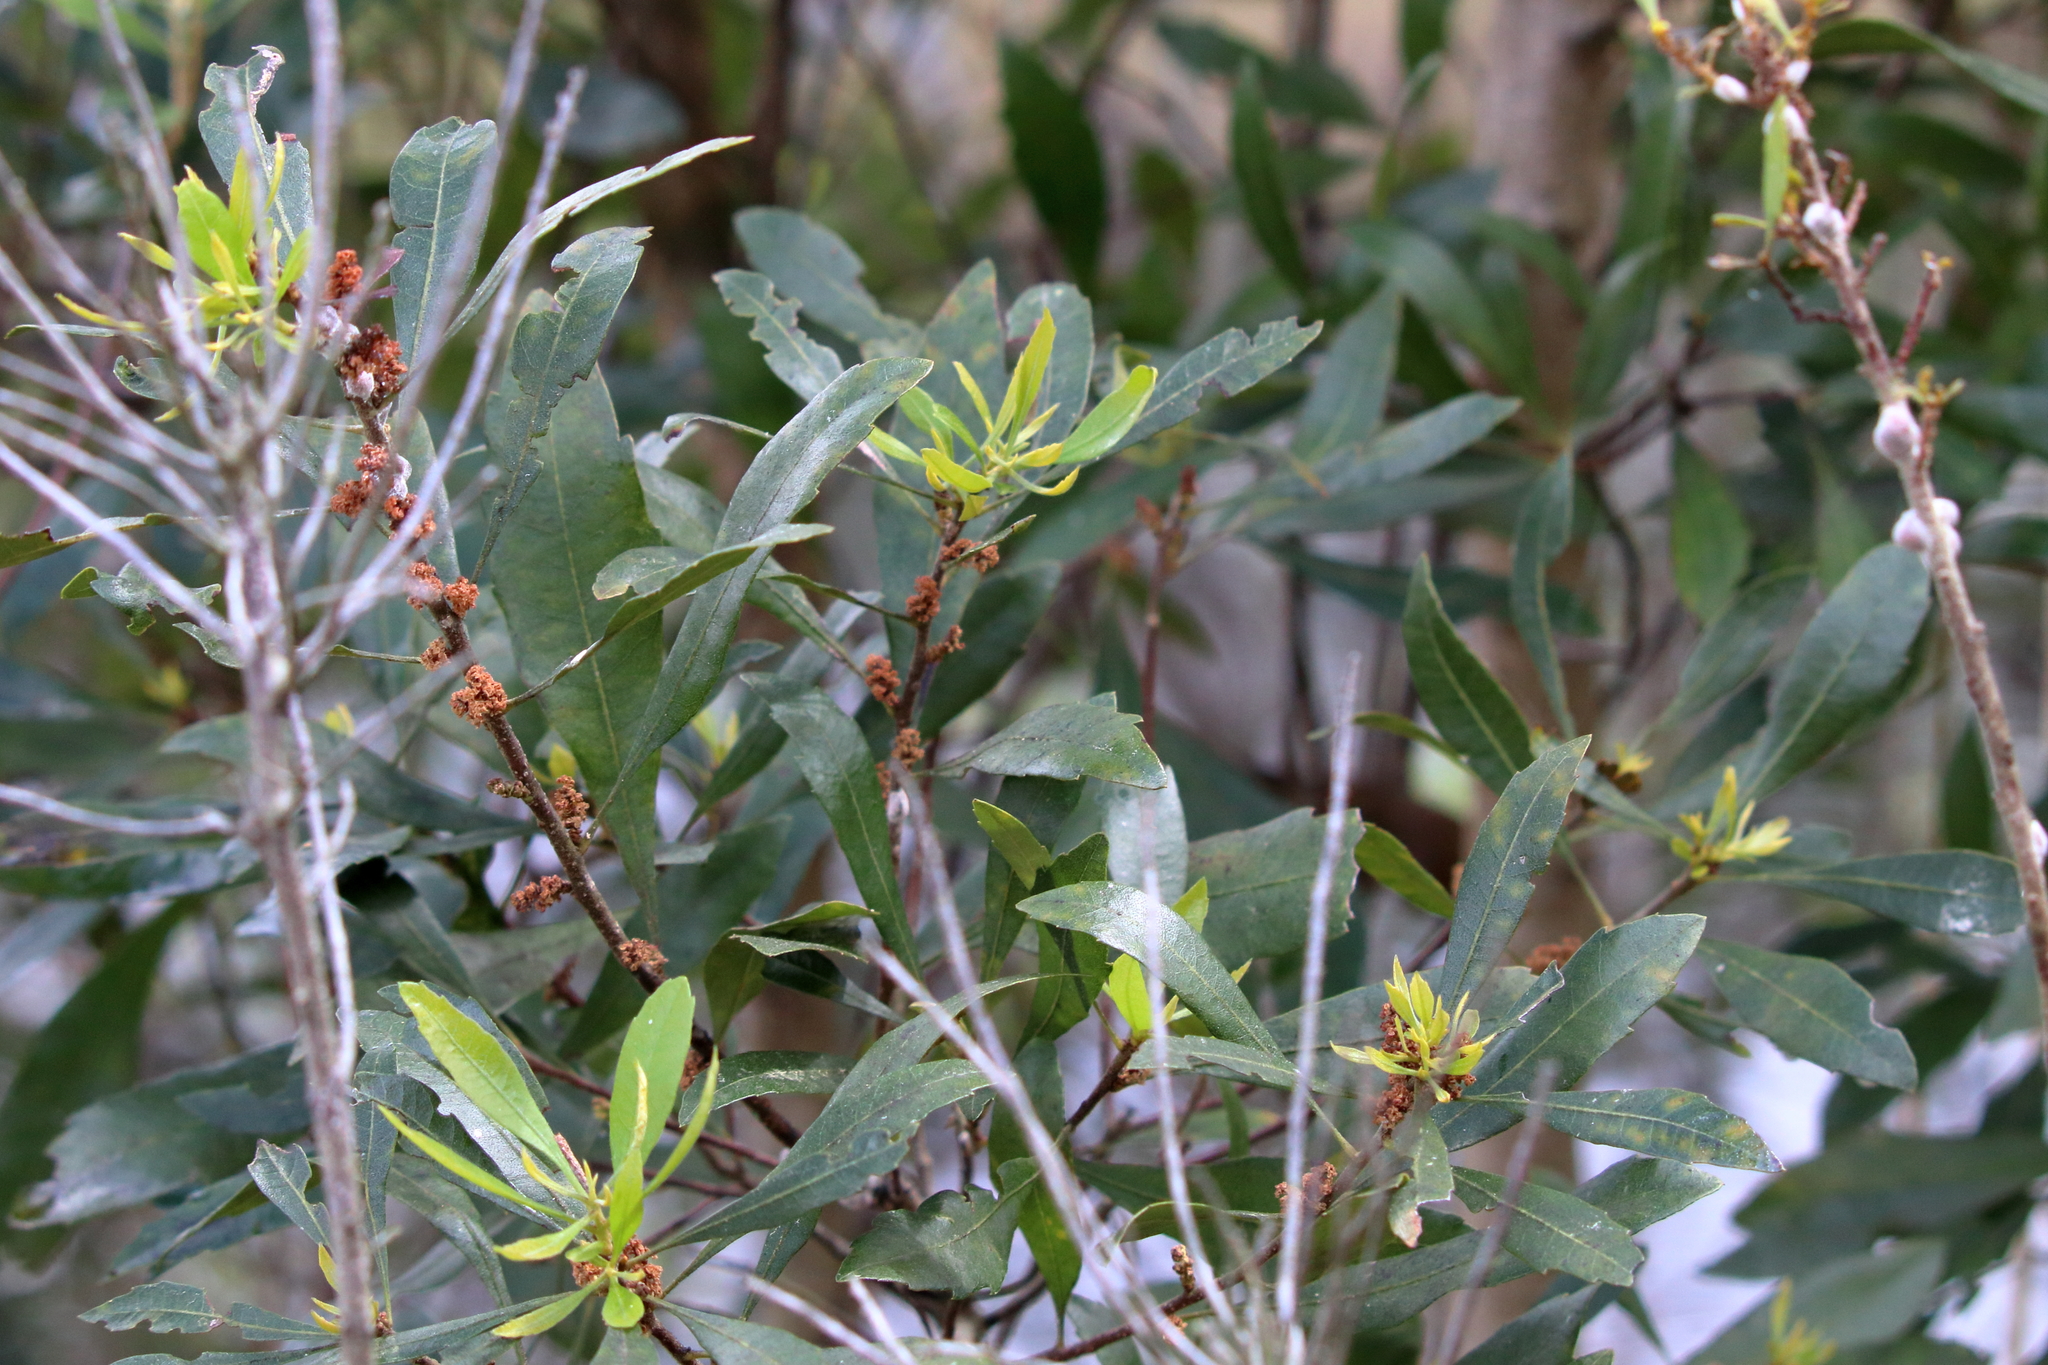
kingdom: Plantae
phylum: Tracheophyta
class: Magnoliopsida
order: Fagales
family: Myricaceae
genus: Morella
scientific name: Morella cerifera
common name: Wax myrtle
